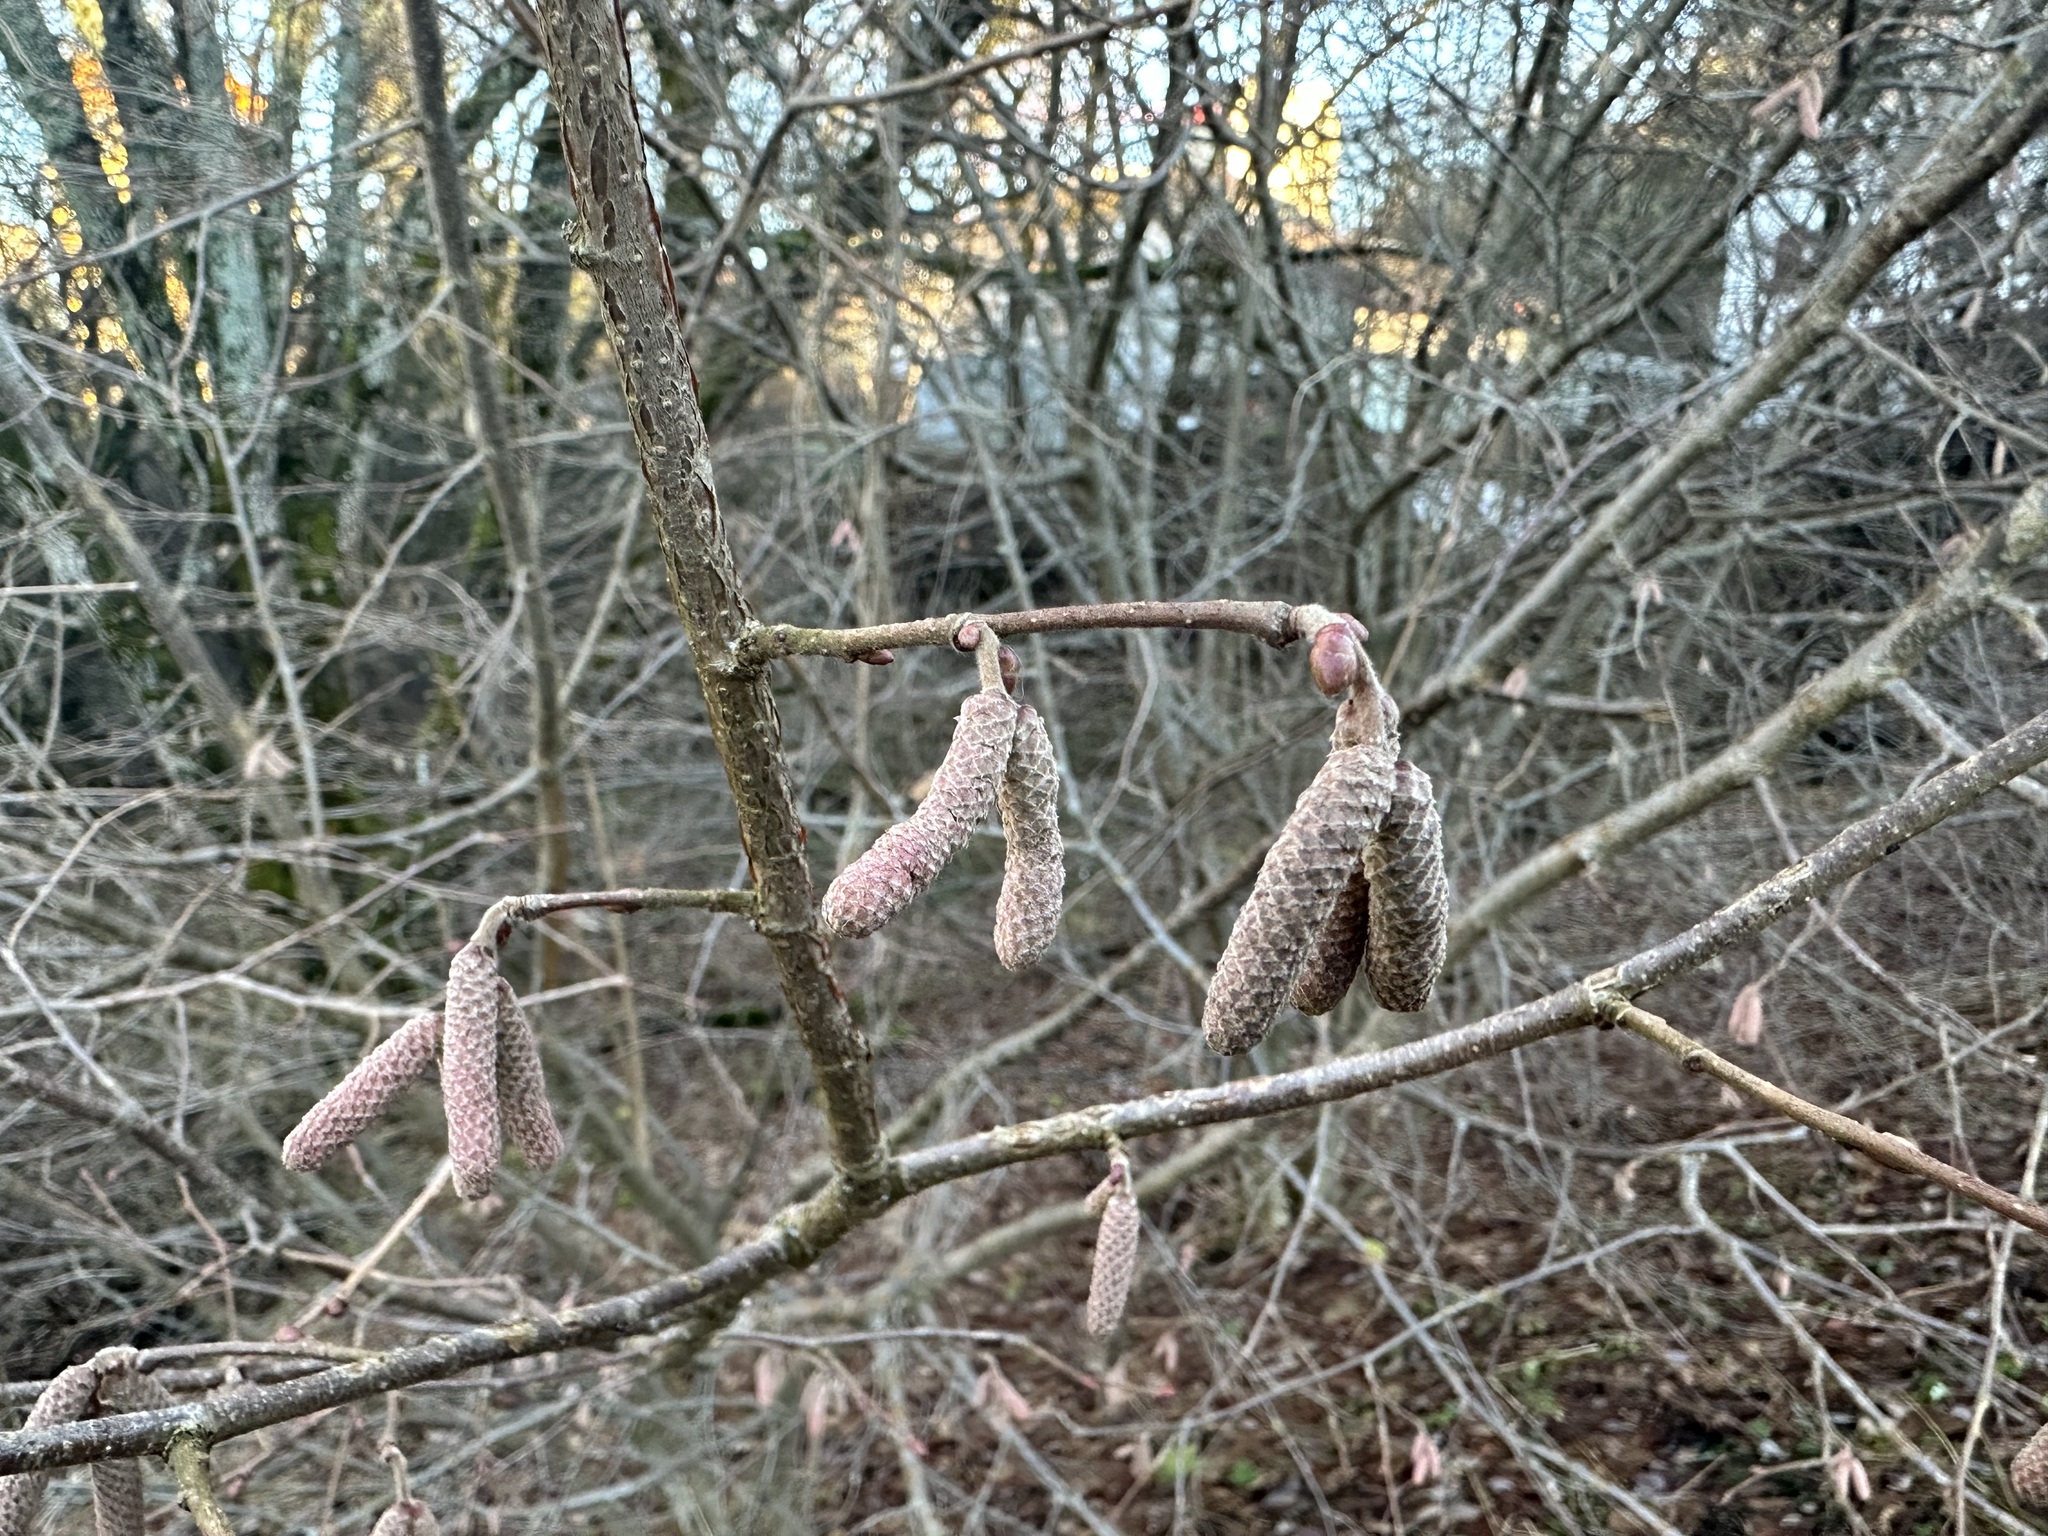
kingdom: Plantae
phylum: Tracheophyta
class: Magnoliopsida
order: Fagales
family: Betulaceae
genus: Corylus
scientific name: Corylus avellana
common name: European hazel
